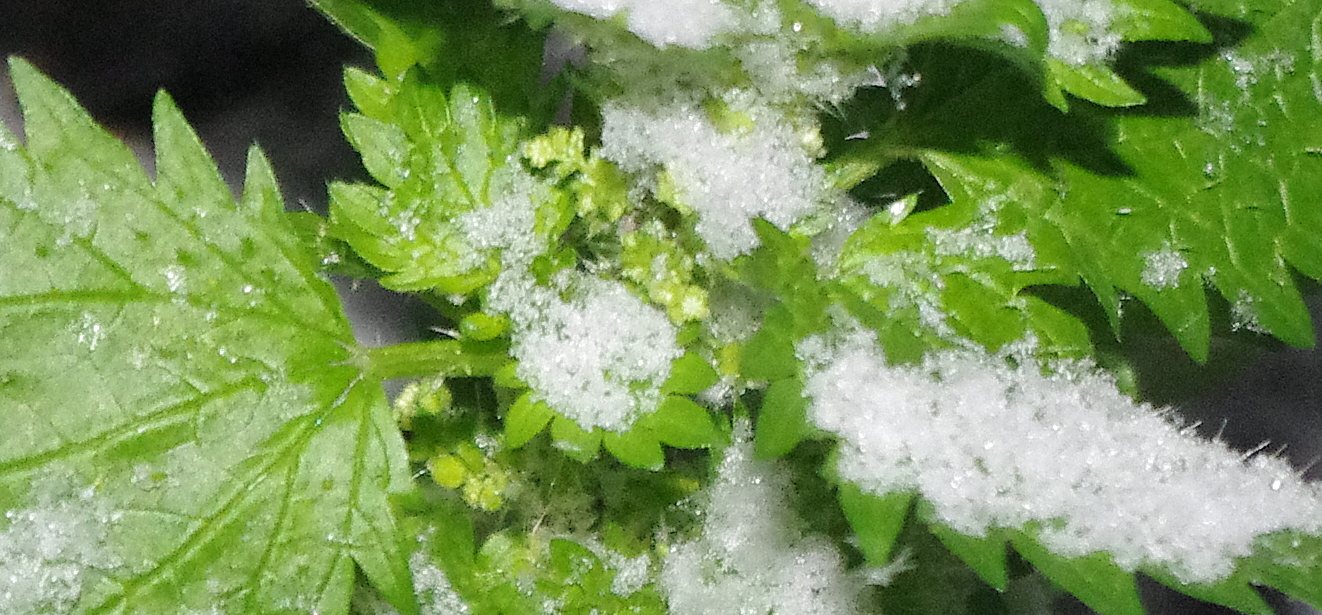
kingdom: Plantae
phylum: Tracheophyta
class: Magnoliopsida
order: Rosales
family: Urticaceae
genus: Urtica
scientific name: Urtica urens
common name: Dwarf nettle
